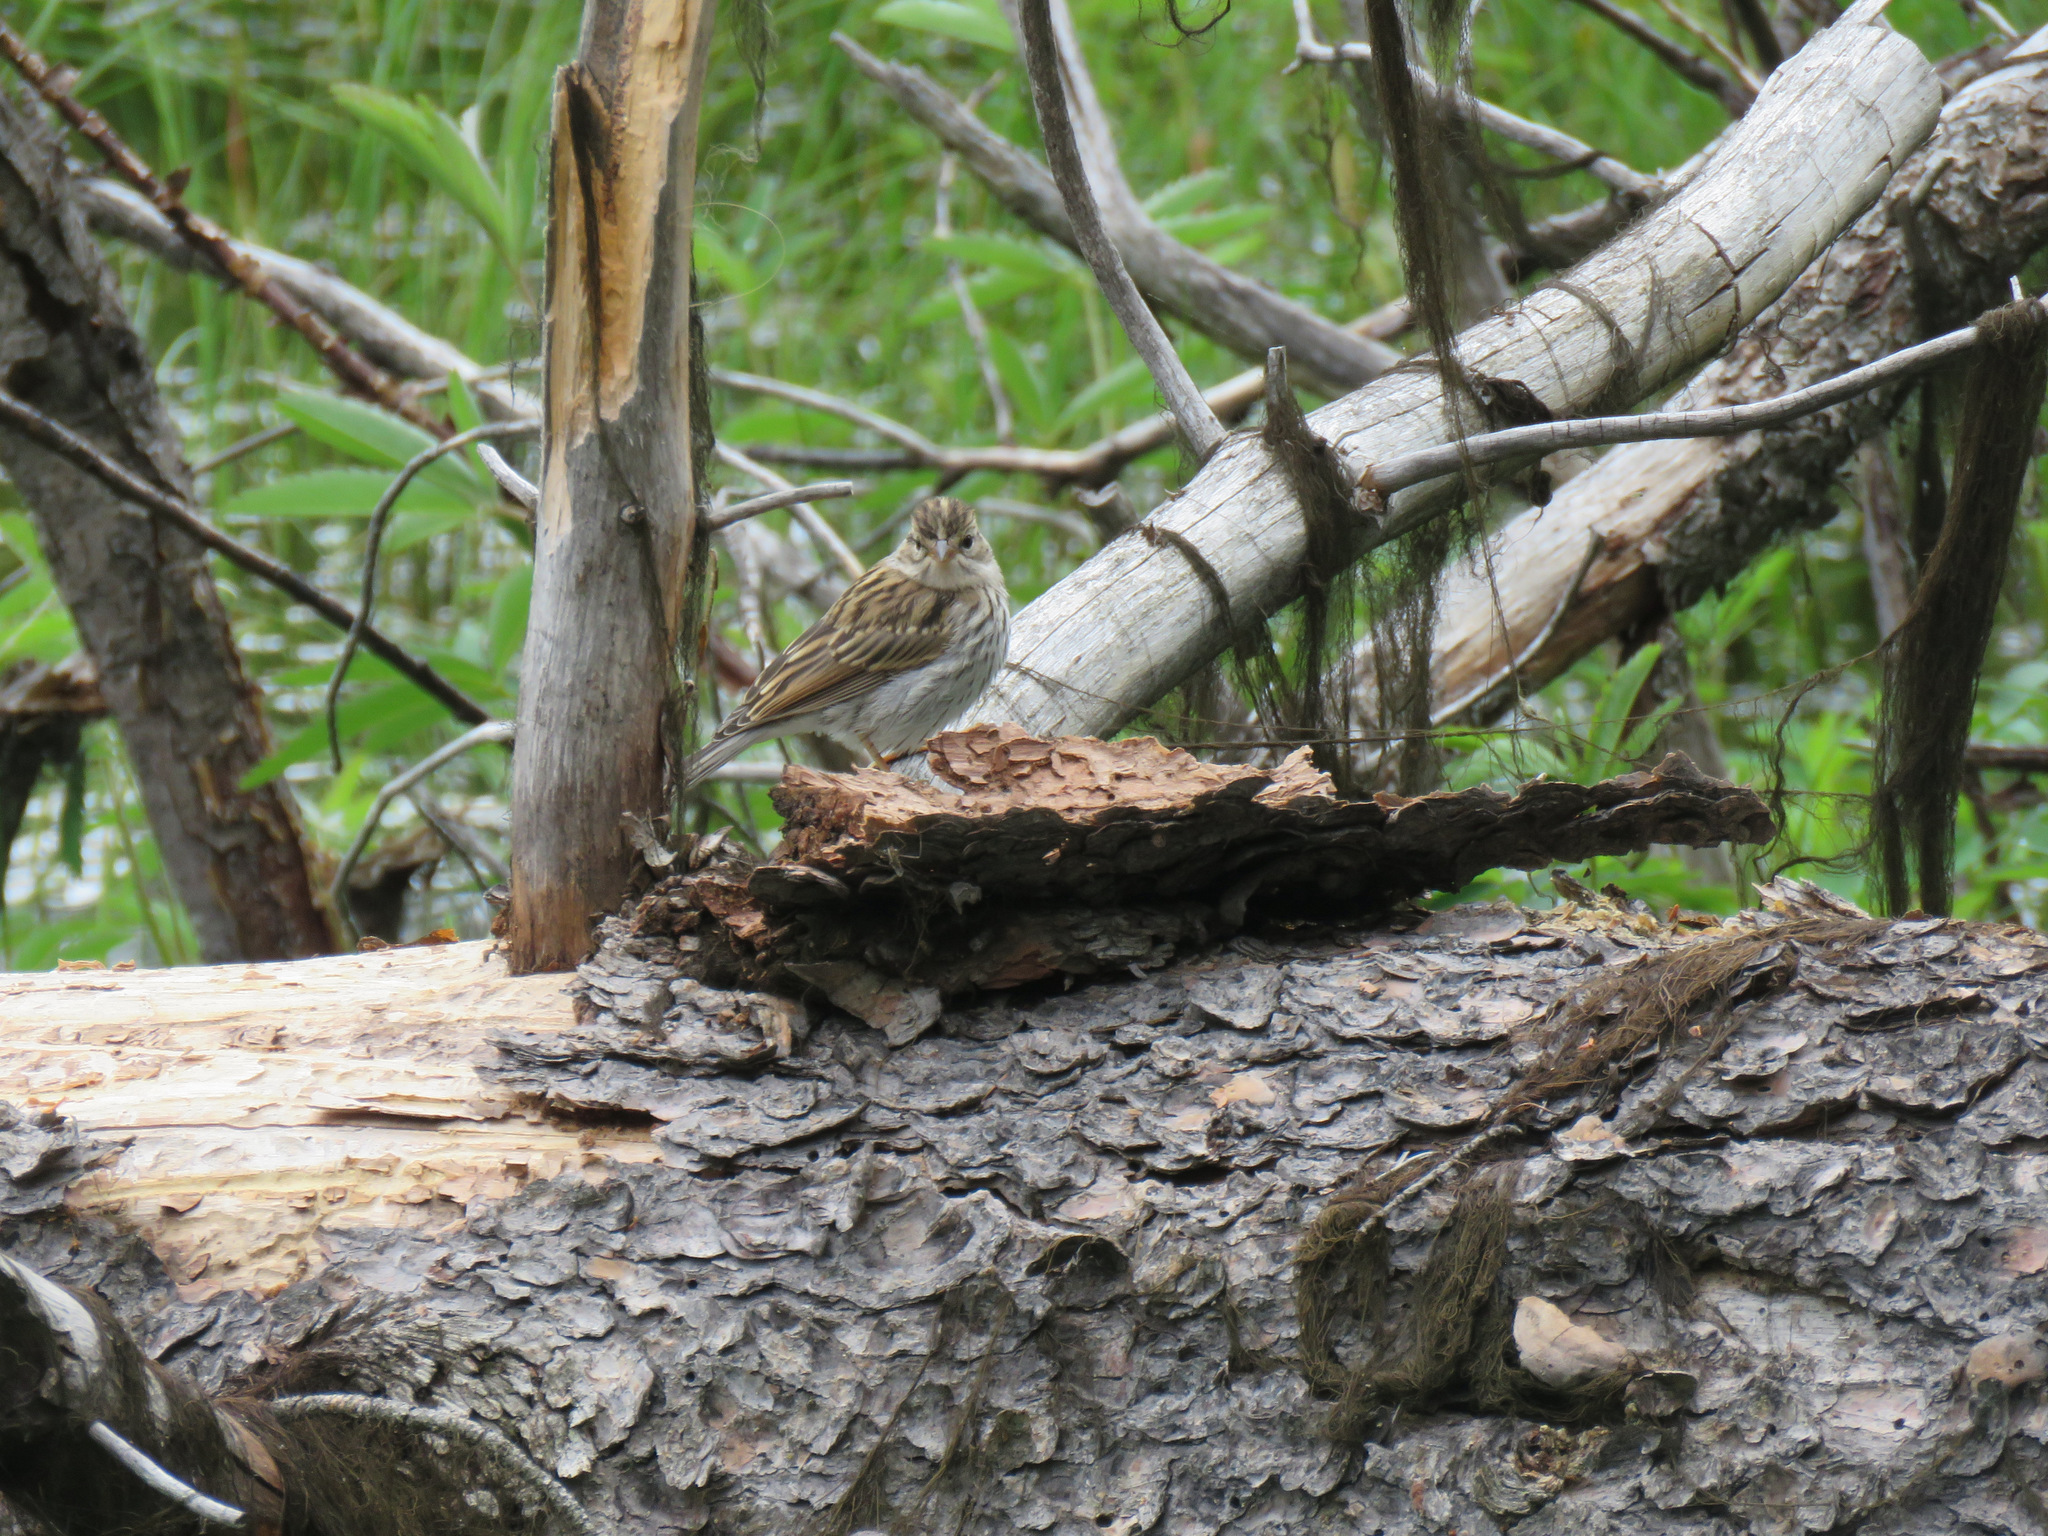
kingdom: Animalia
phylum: Chordata
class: Aves
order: Passeriformes
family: Passerellidae
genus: Spizella
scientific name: Spizella passerina
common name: Chipping sparrow
